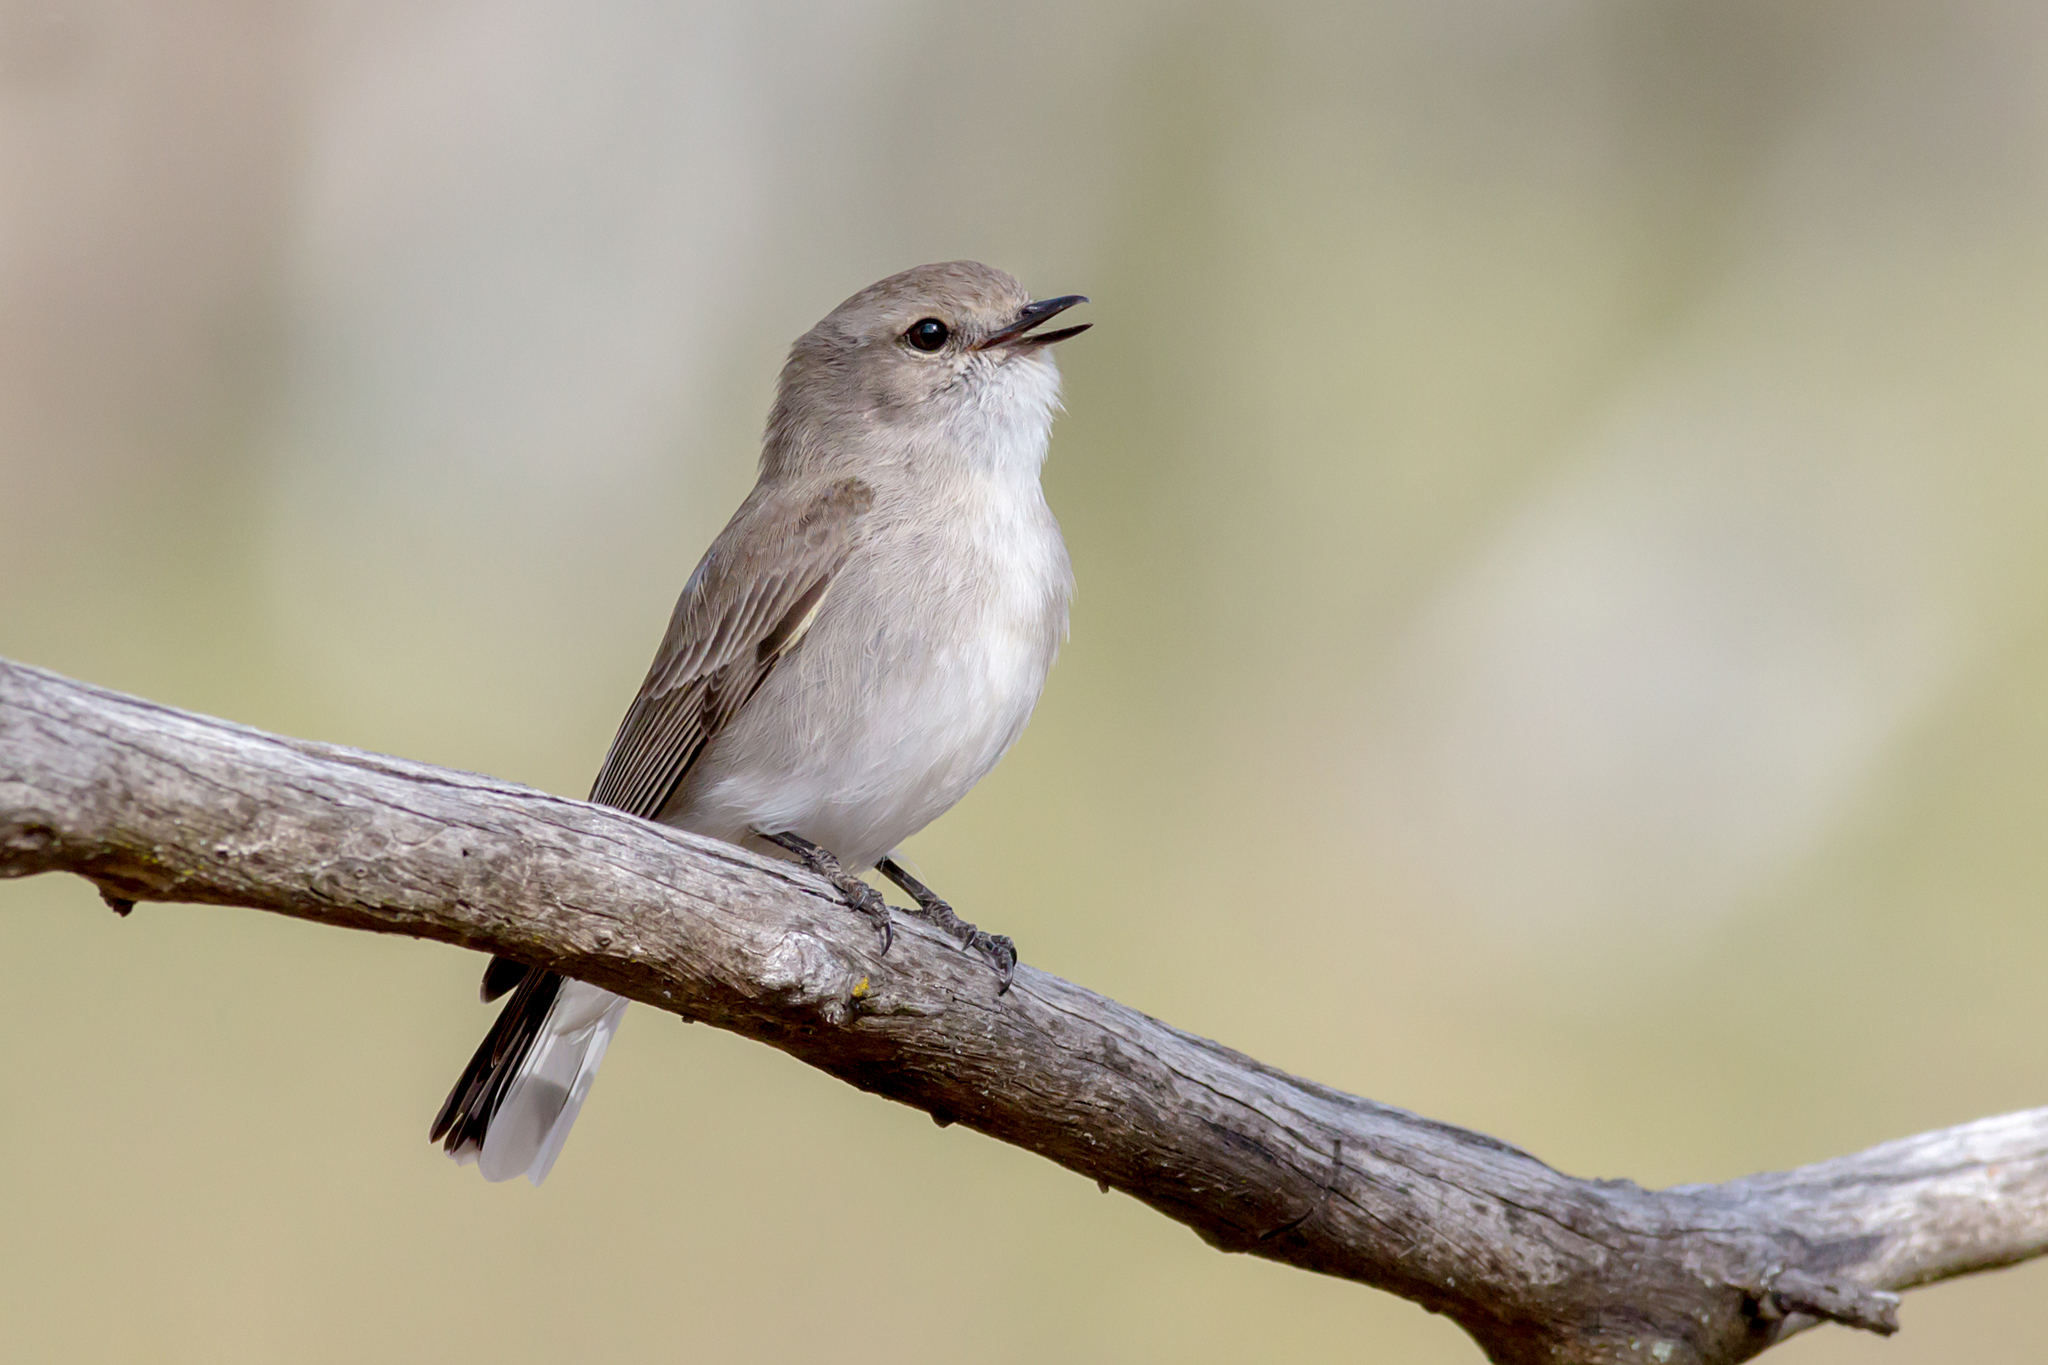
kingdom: Animalia
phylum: Chordata
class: Aves
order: Passeriformes
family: Petroicidae
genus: Microeca
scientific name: Microeca fascinans
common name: Jacky winter
